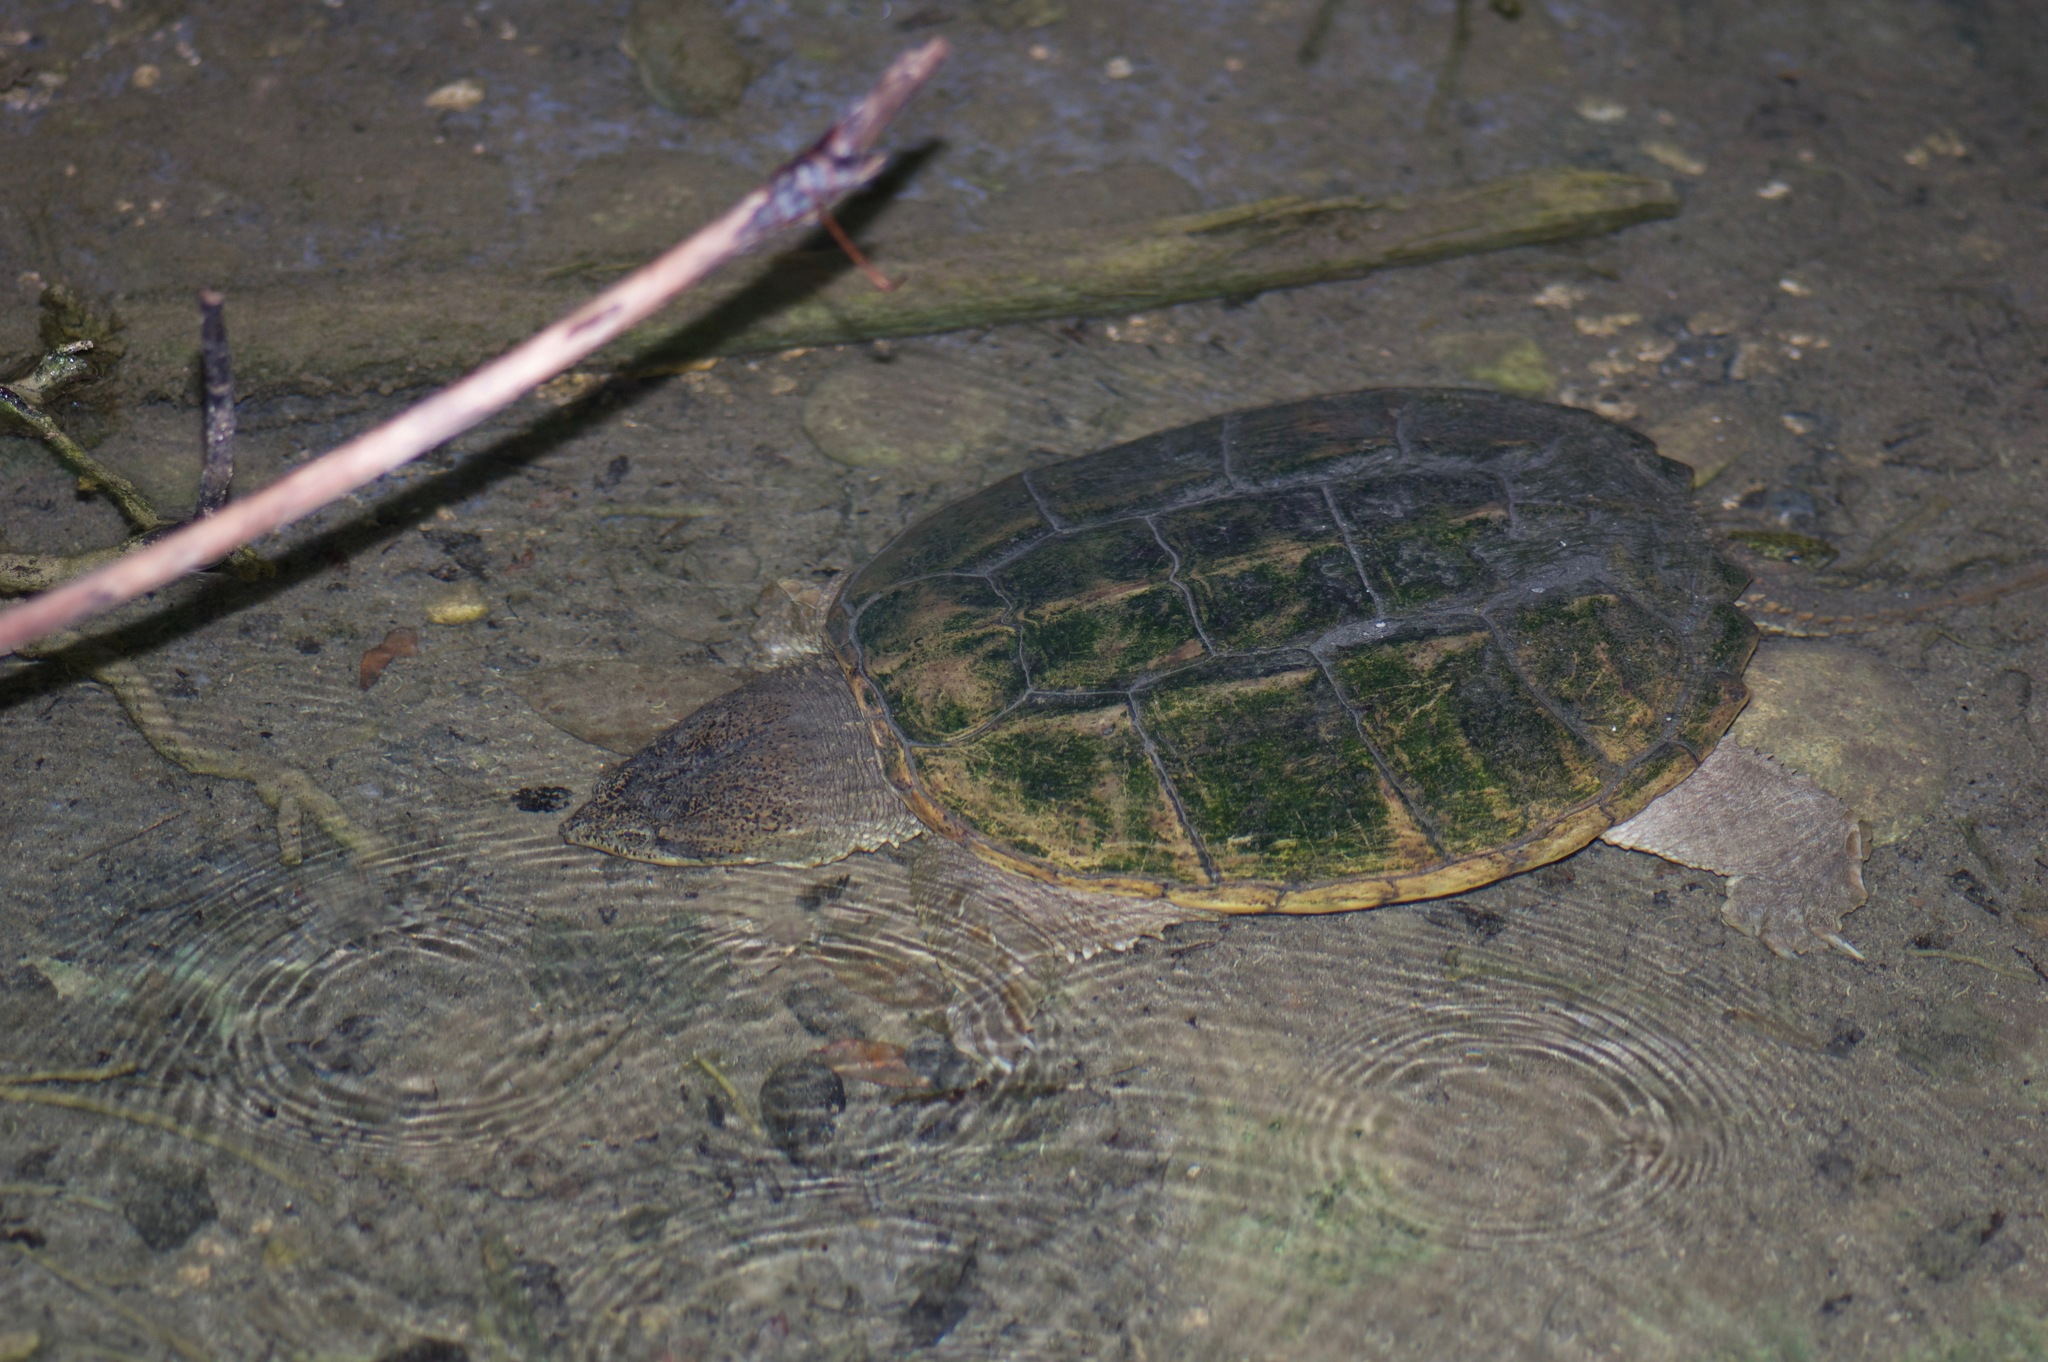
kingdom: Animalia
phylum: Chordata
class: Testudines
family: Chelydridae
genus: Chelydra
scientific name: Chelydra serpentina
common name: Common snapping turtle
